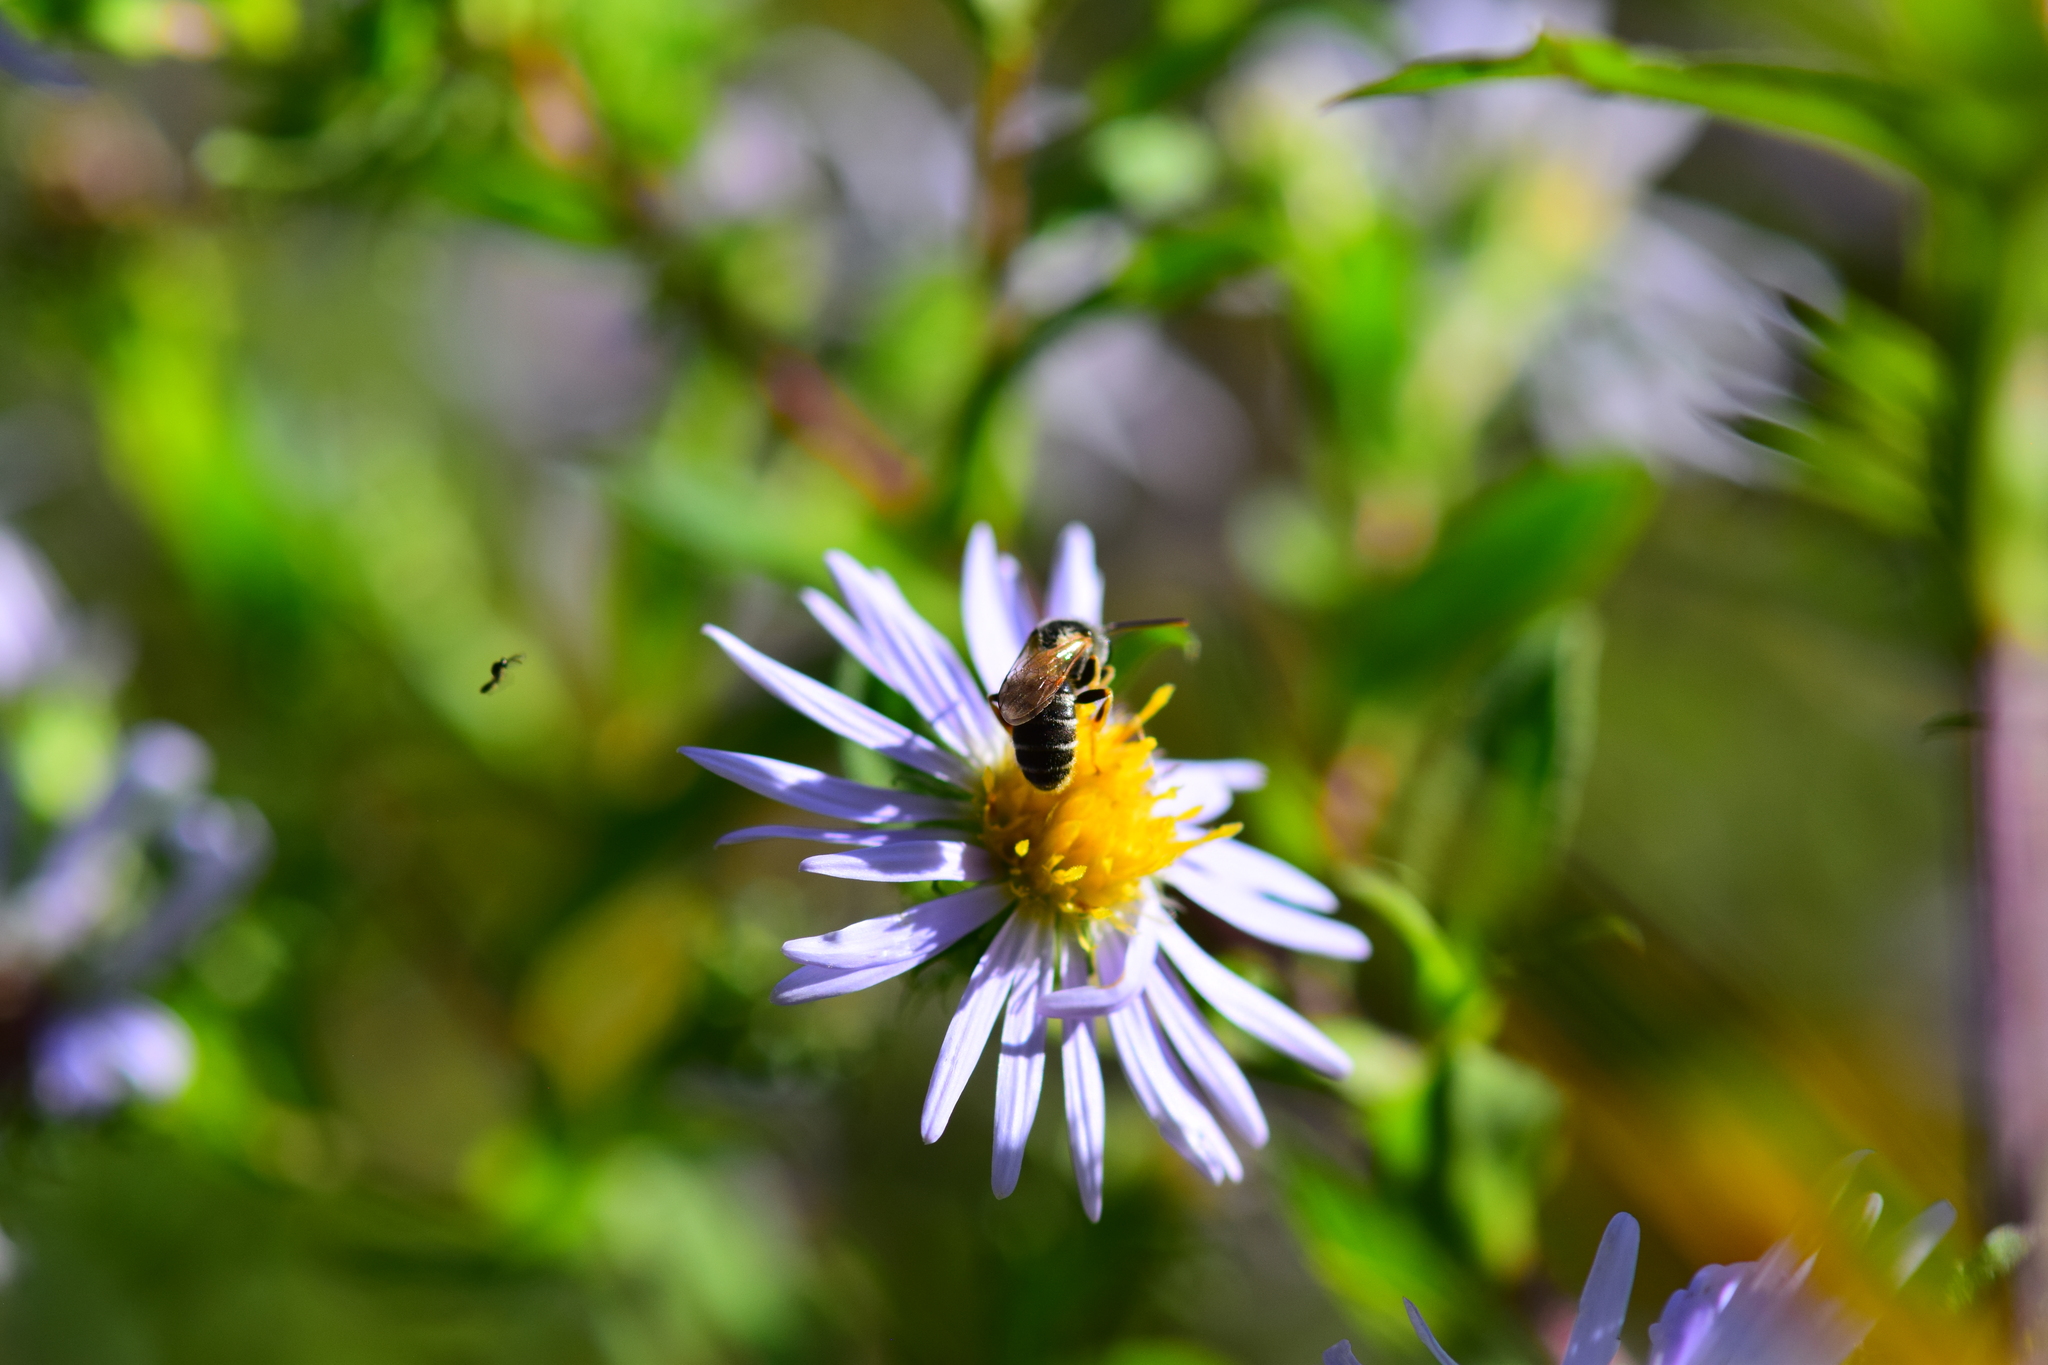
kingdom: Animalia
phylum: Arthropoda
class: Insecta
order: Hymenoptera
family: Halictidae
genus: Halictus
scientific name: Halictus ligatus
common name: Ligated furrow bee
